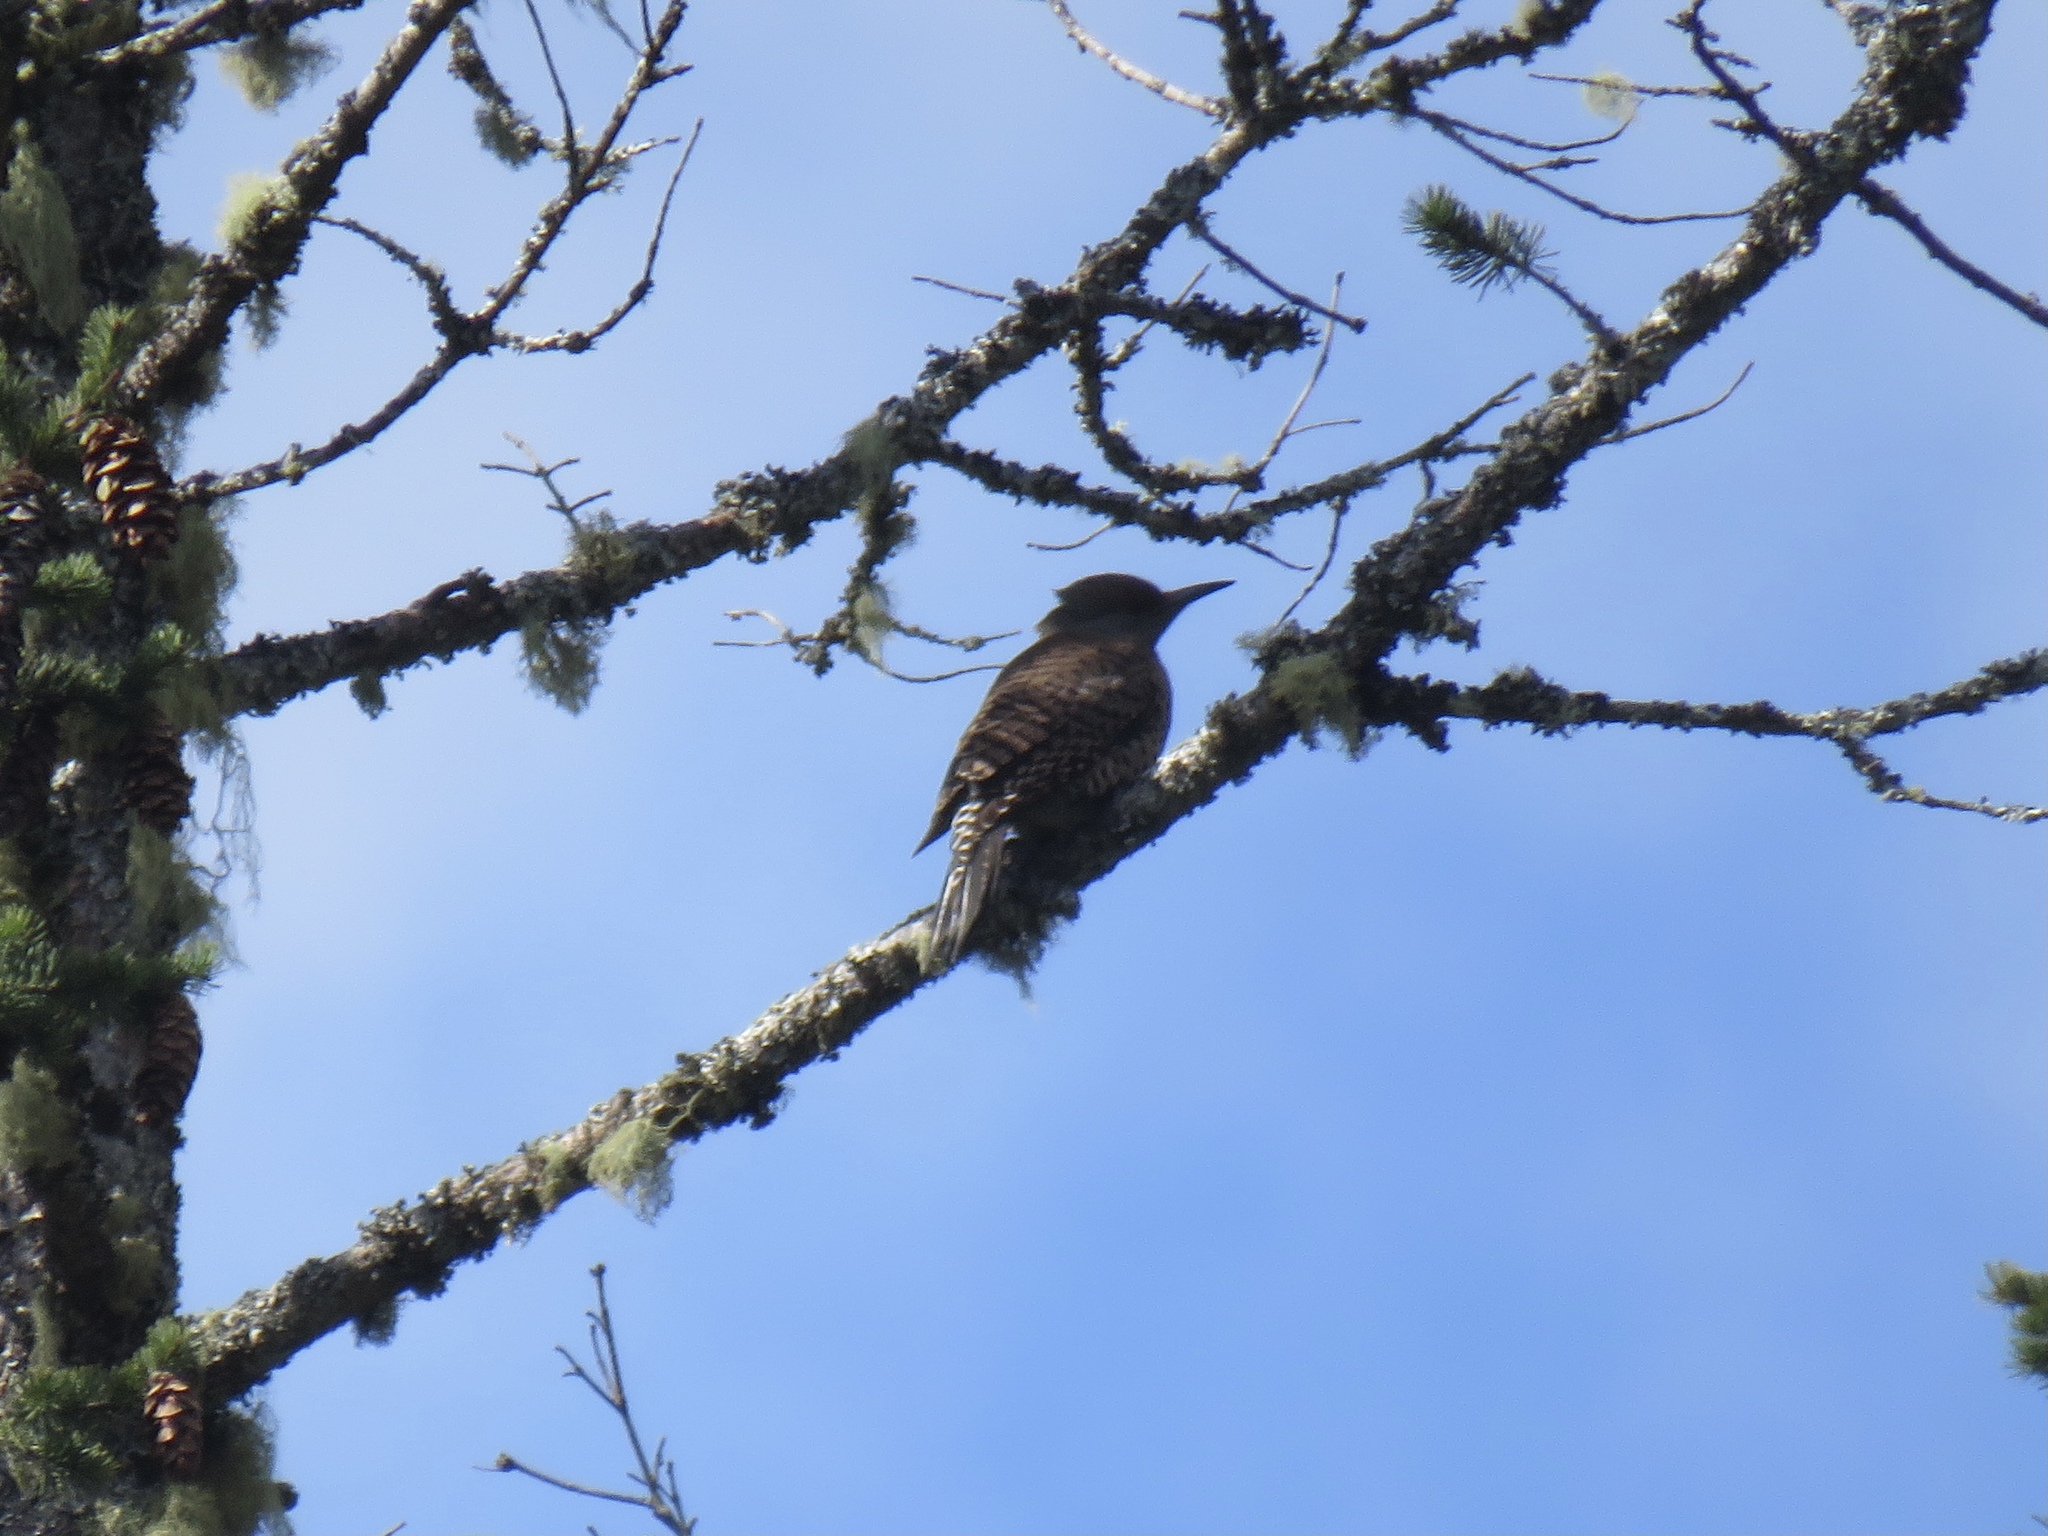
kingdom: Animalia
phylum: Chordata
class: Aves
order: Piciformes
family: Picidae
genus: Colaptes
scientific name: Colaptes auratus
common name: Northern flicker
